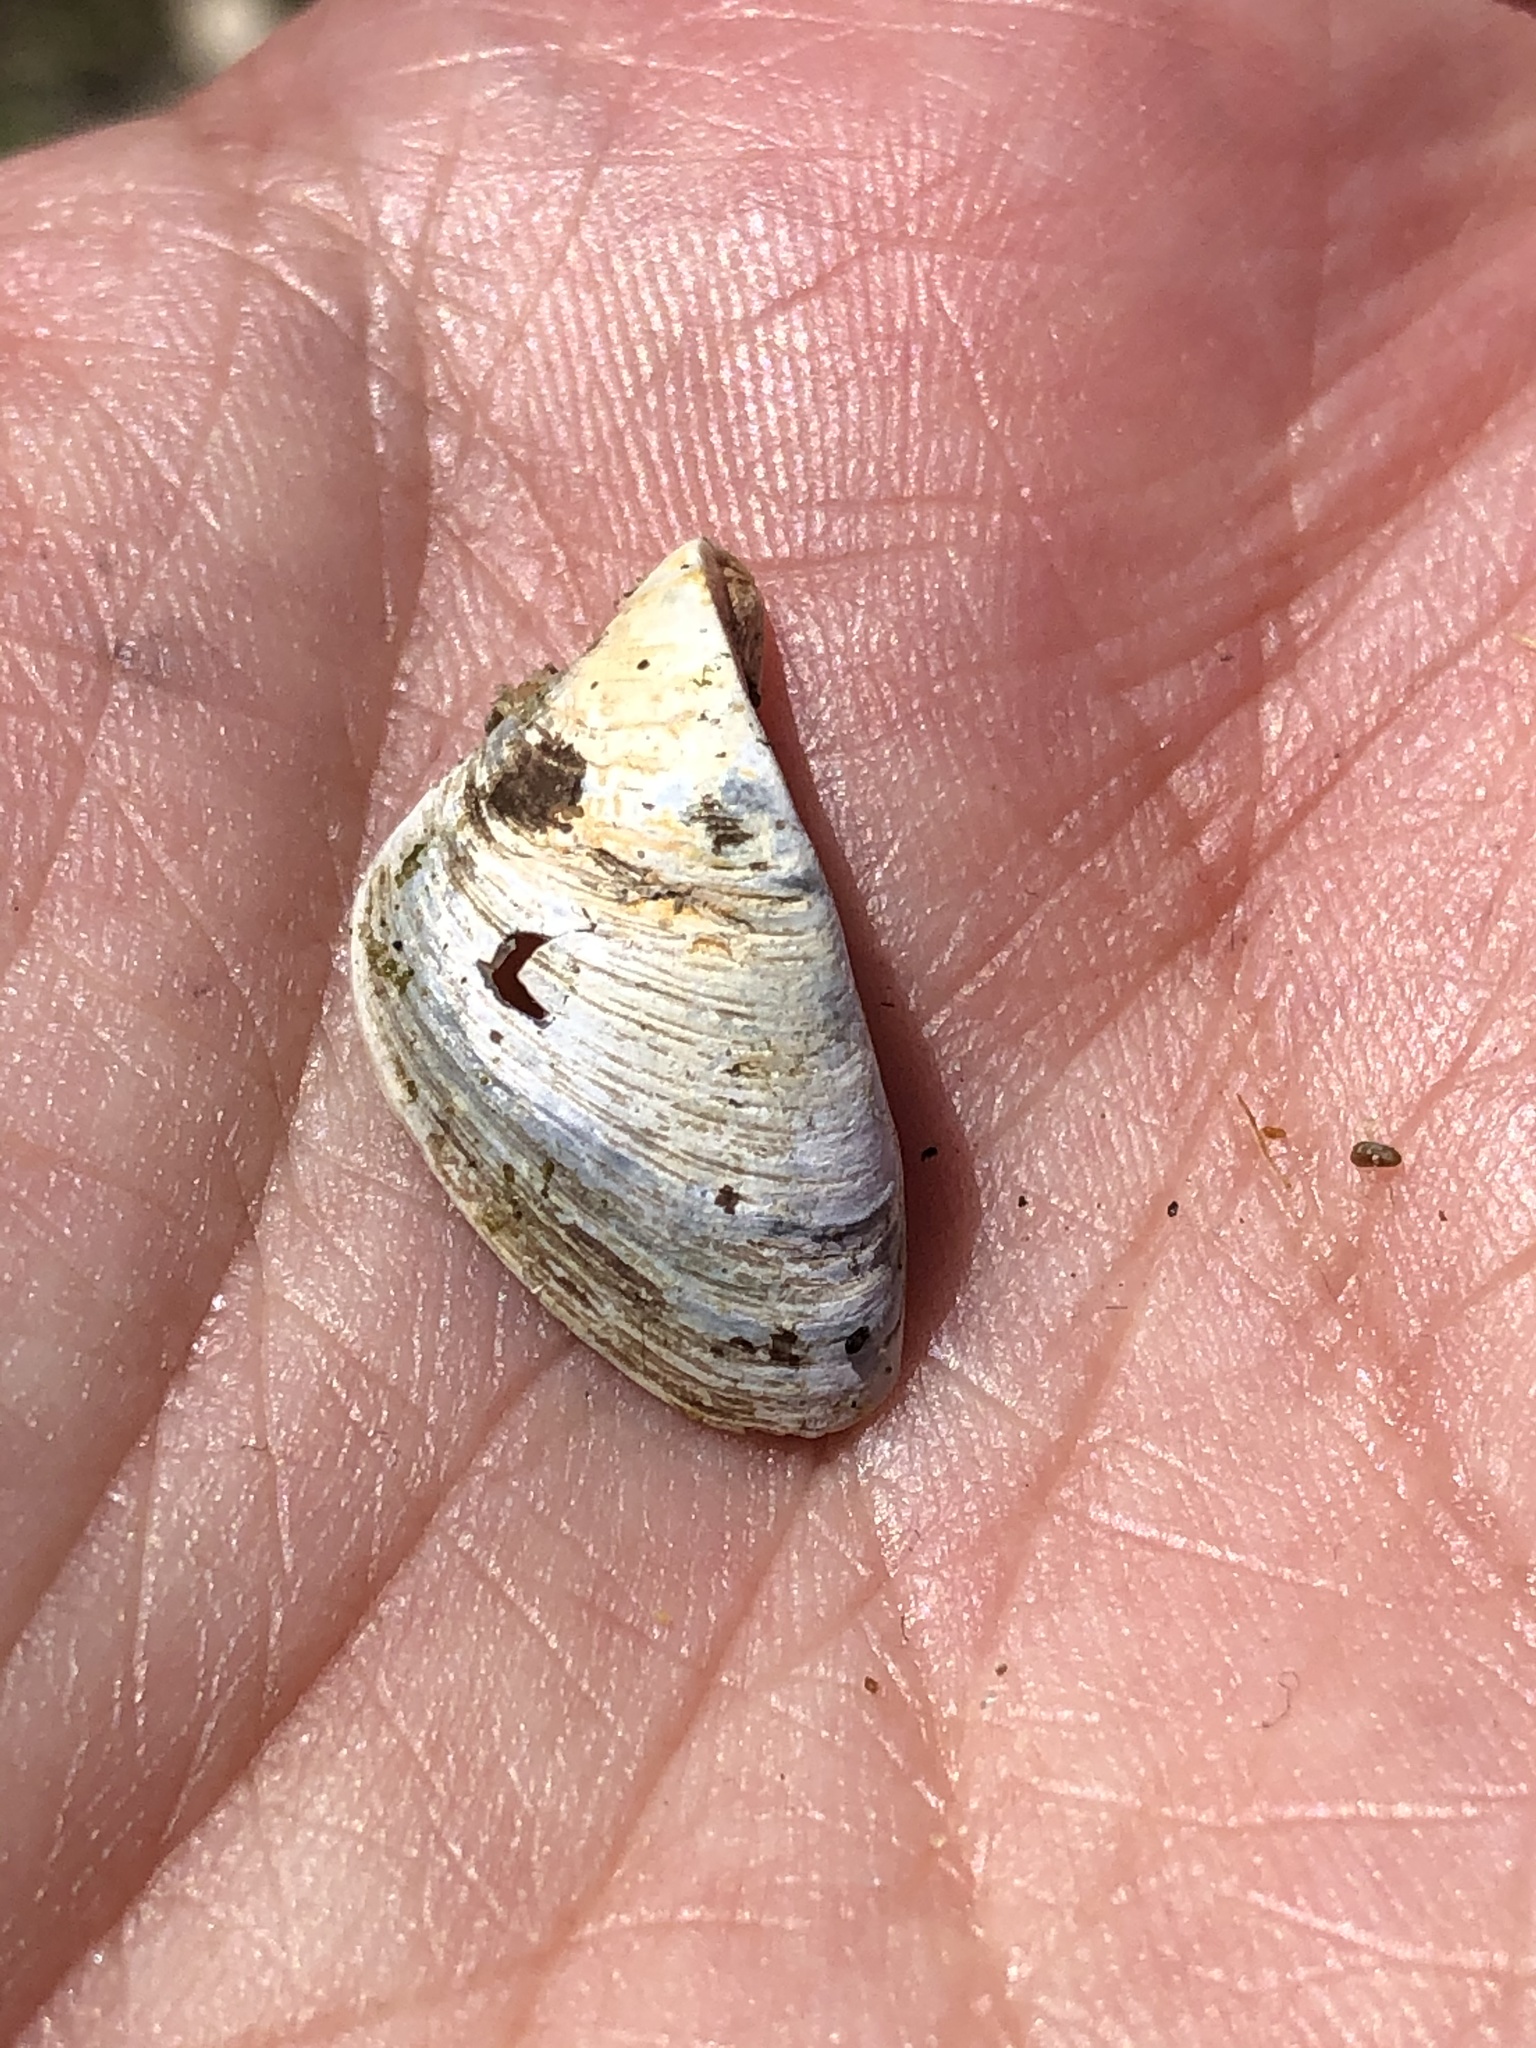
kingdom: Animalia
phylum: Mollusca
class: Bivalvia
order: Myida
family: Dreissenidae
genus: Dreissena
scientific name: Dreissena polymorpha
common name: Zebra mussel
